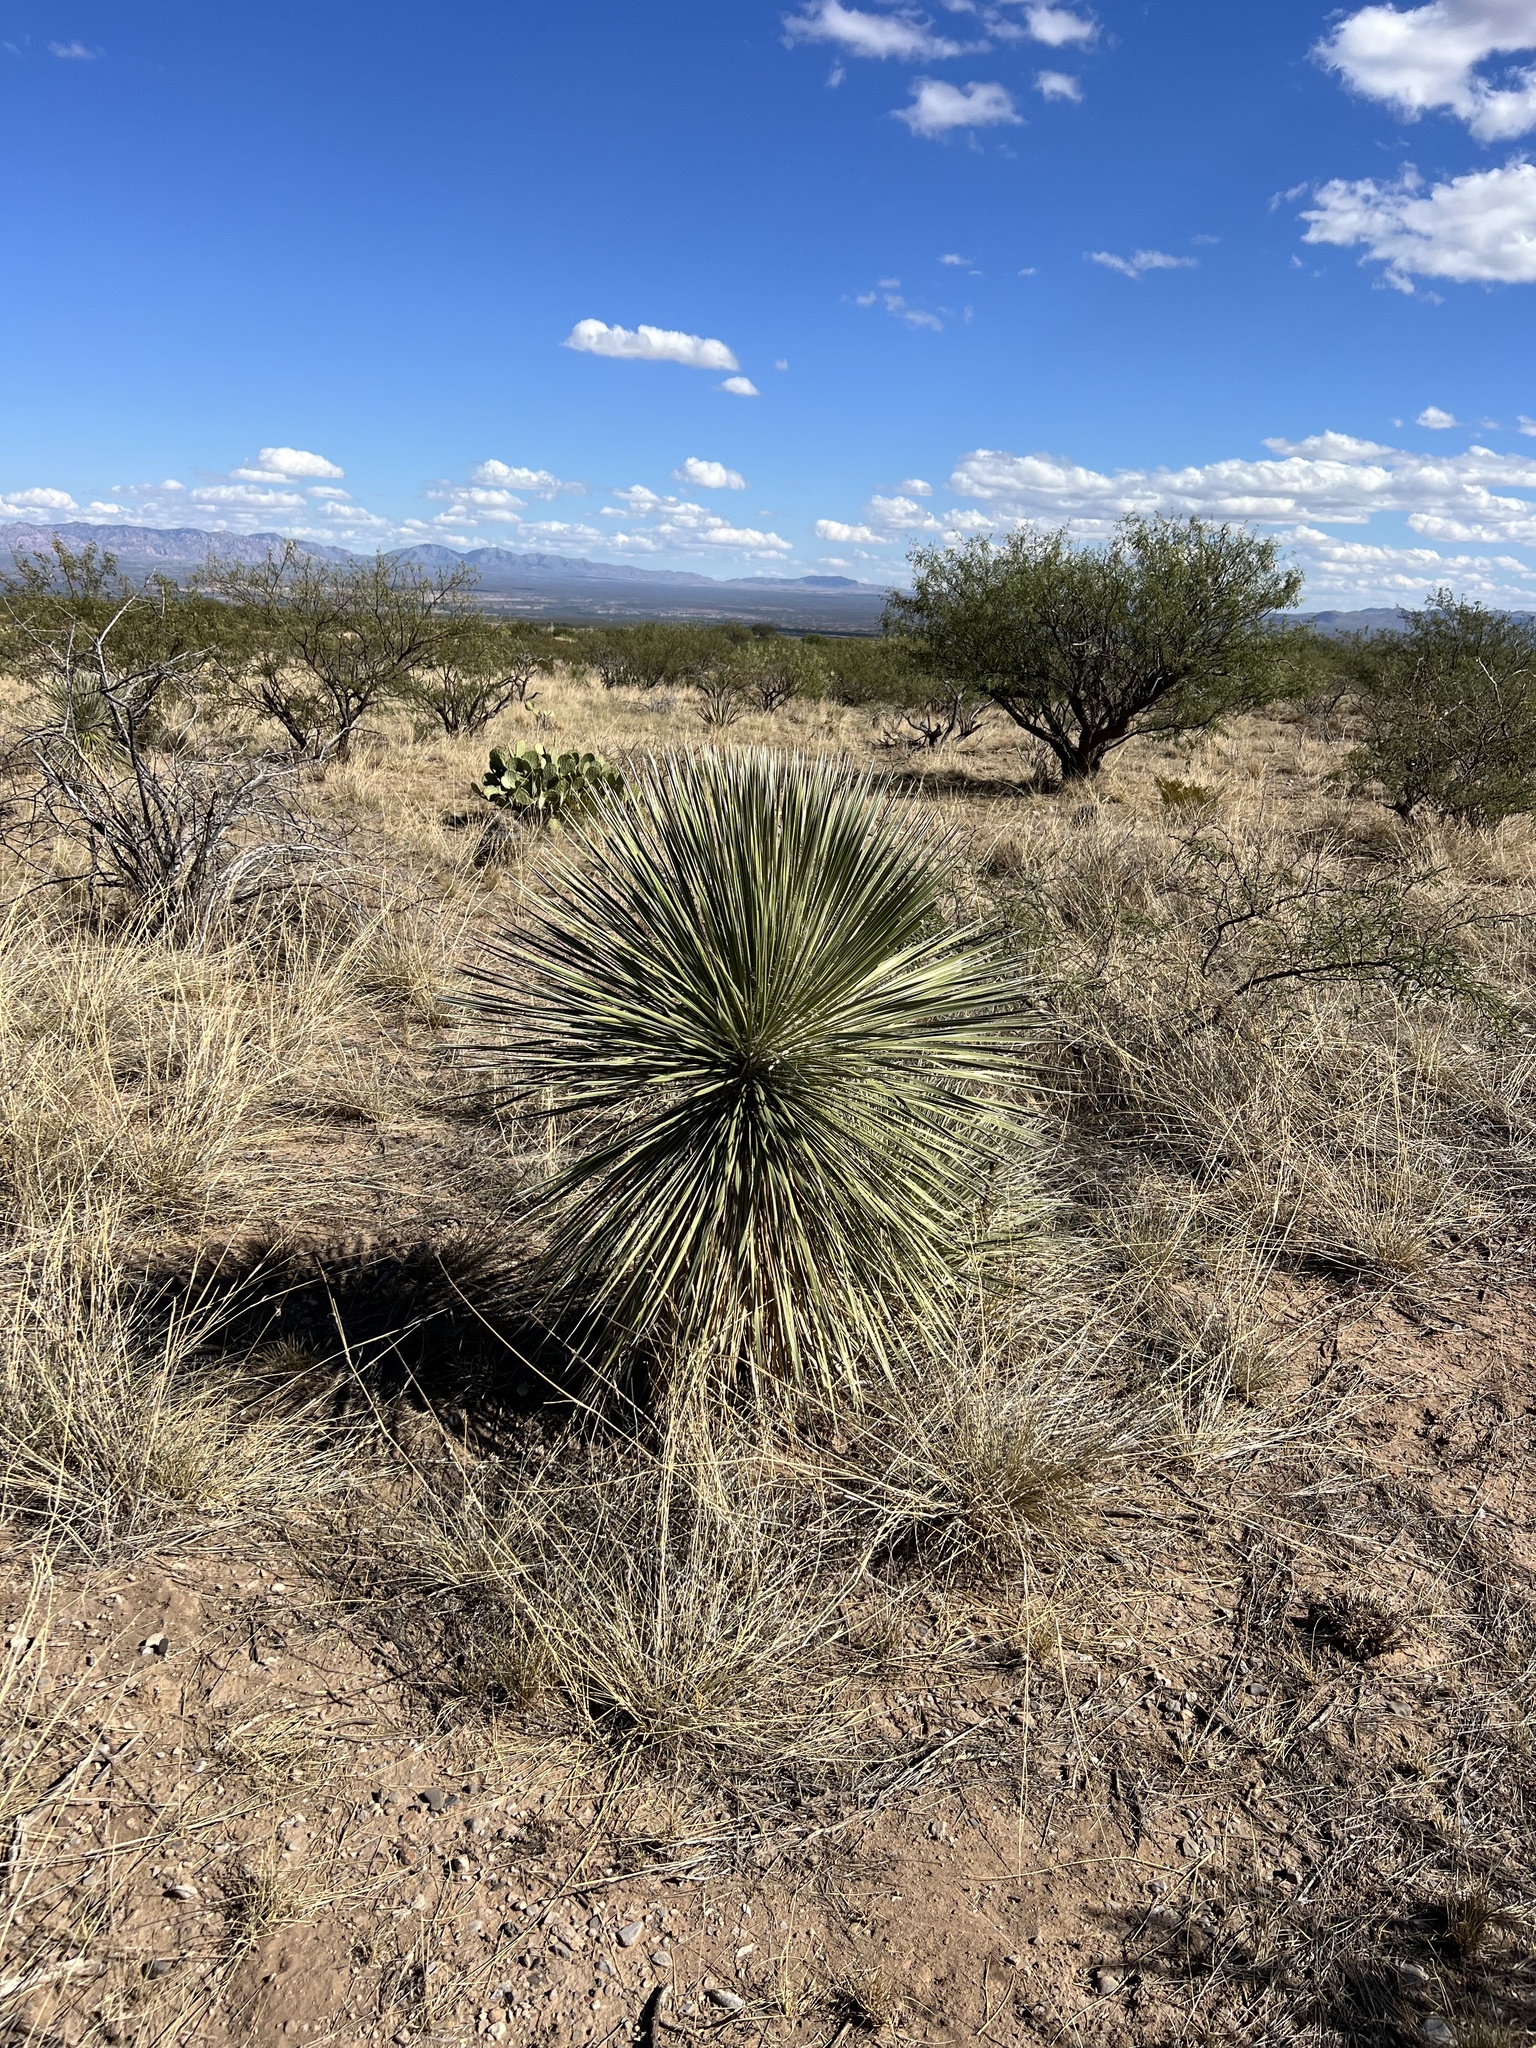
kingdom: Plantae
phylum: Tracheophyta
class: Liliopsida
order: Asparagales
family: Asparagaceae
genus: Yucca
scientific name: Yucca elata
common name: Palmella
